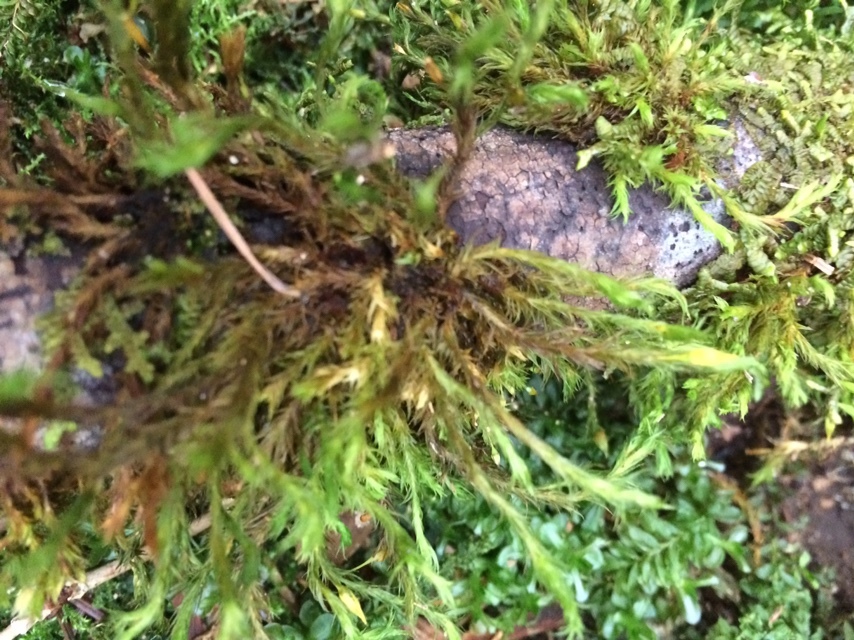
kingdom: Plantae
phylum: Bryophyta
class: Bryopsida
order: Orthotrichales
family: Orthotrichaceae
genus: Pulvigera
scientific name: Pulvigera lyellii
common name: Lyell's bristle-moss
